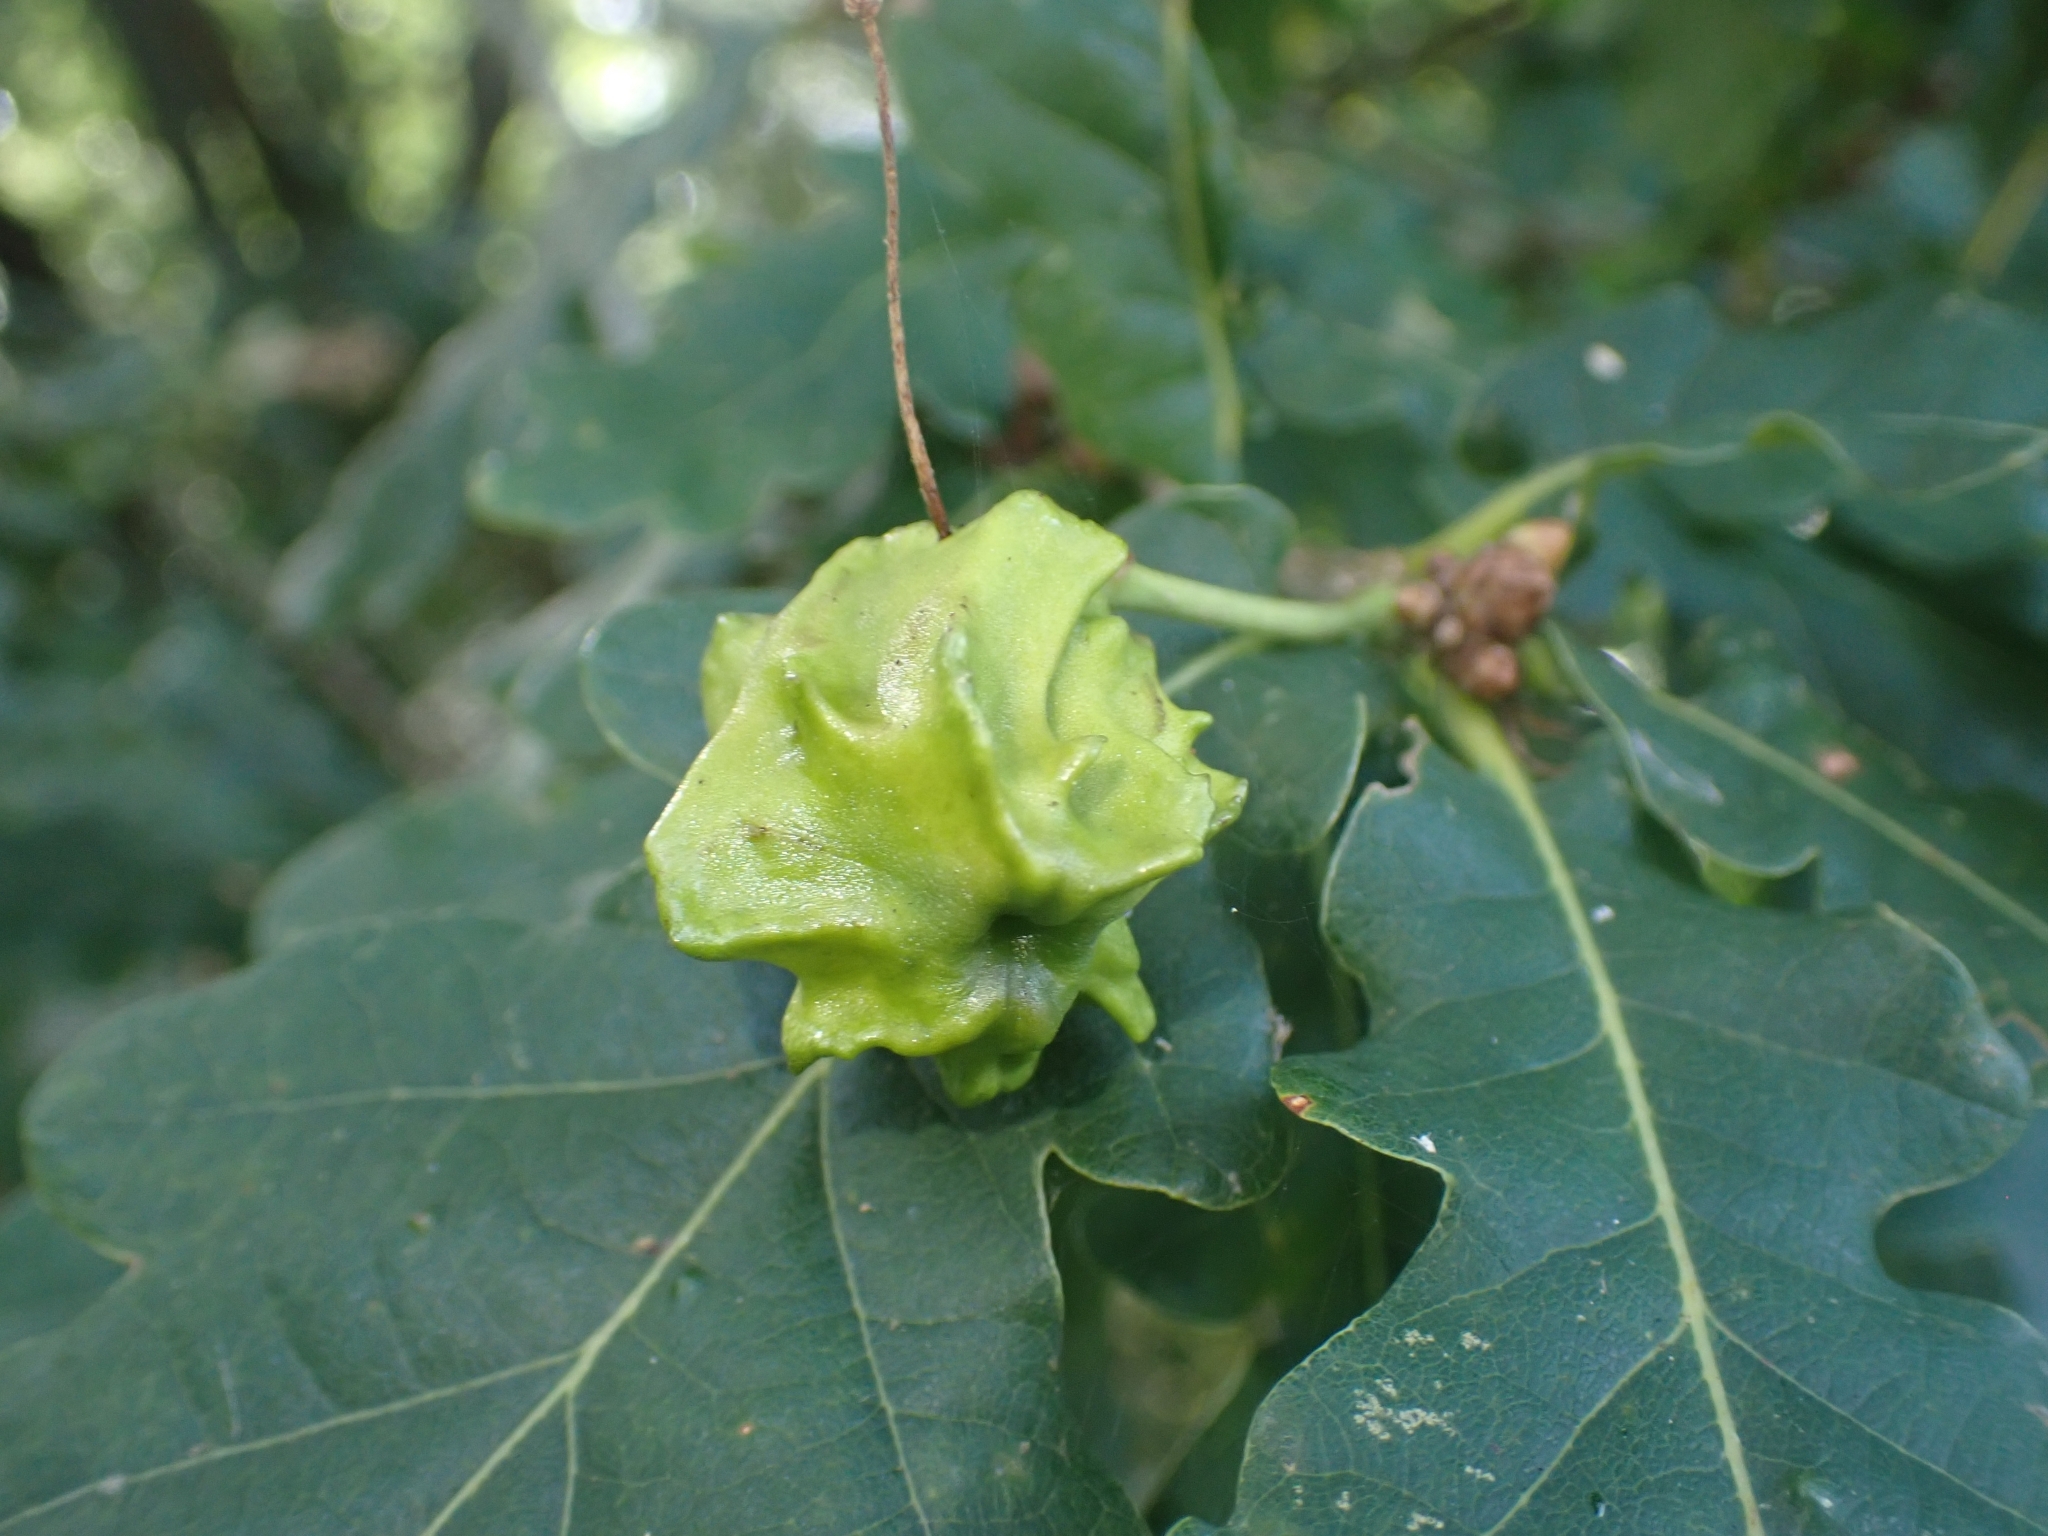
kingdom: Animalia
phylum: Arthropoda
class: Insecta
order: Hymenoptera
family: Cynipidae
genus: Andricus
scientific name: Andricus quercuscalicis
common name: Knopper gall
